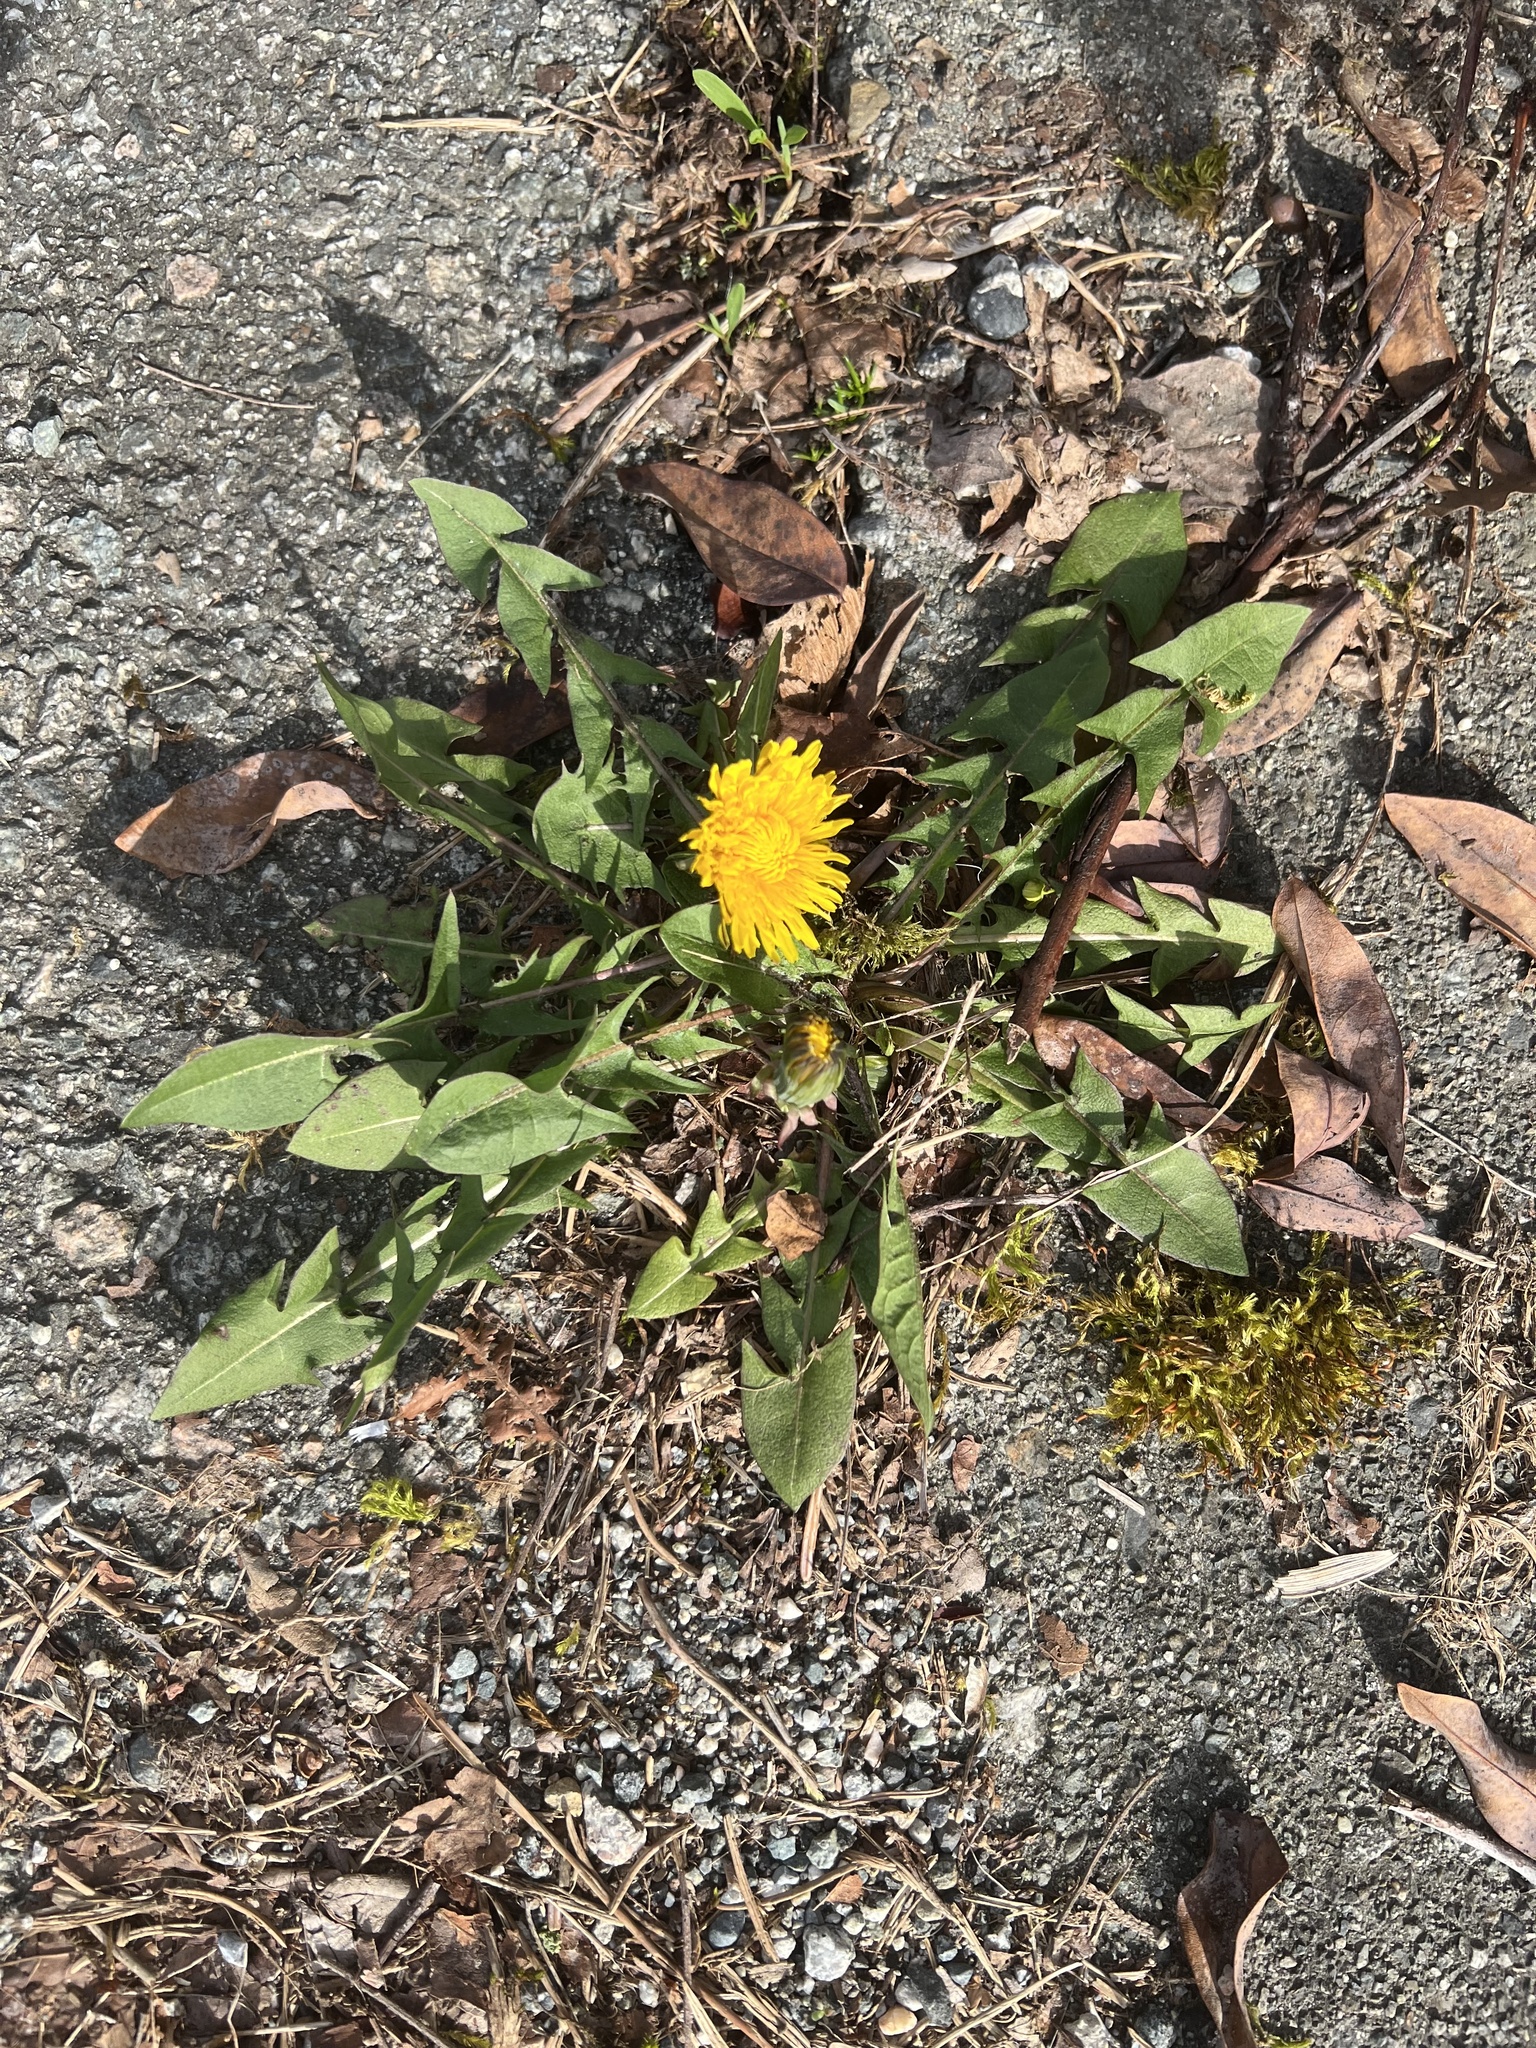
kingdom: Plantae
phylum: Tracheophyta
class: Magnoliopsida
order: Asterales
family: Asteraceae
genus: Taraxacum
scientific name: Taraxacum officinale
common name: Common dandelion
